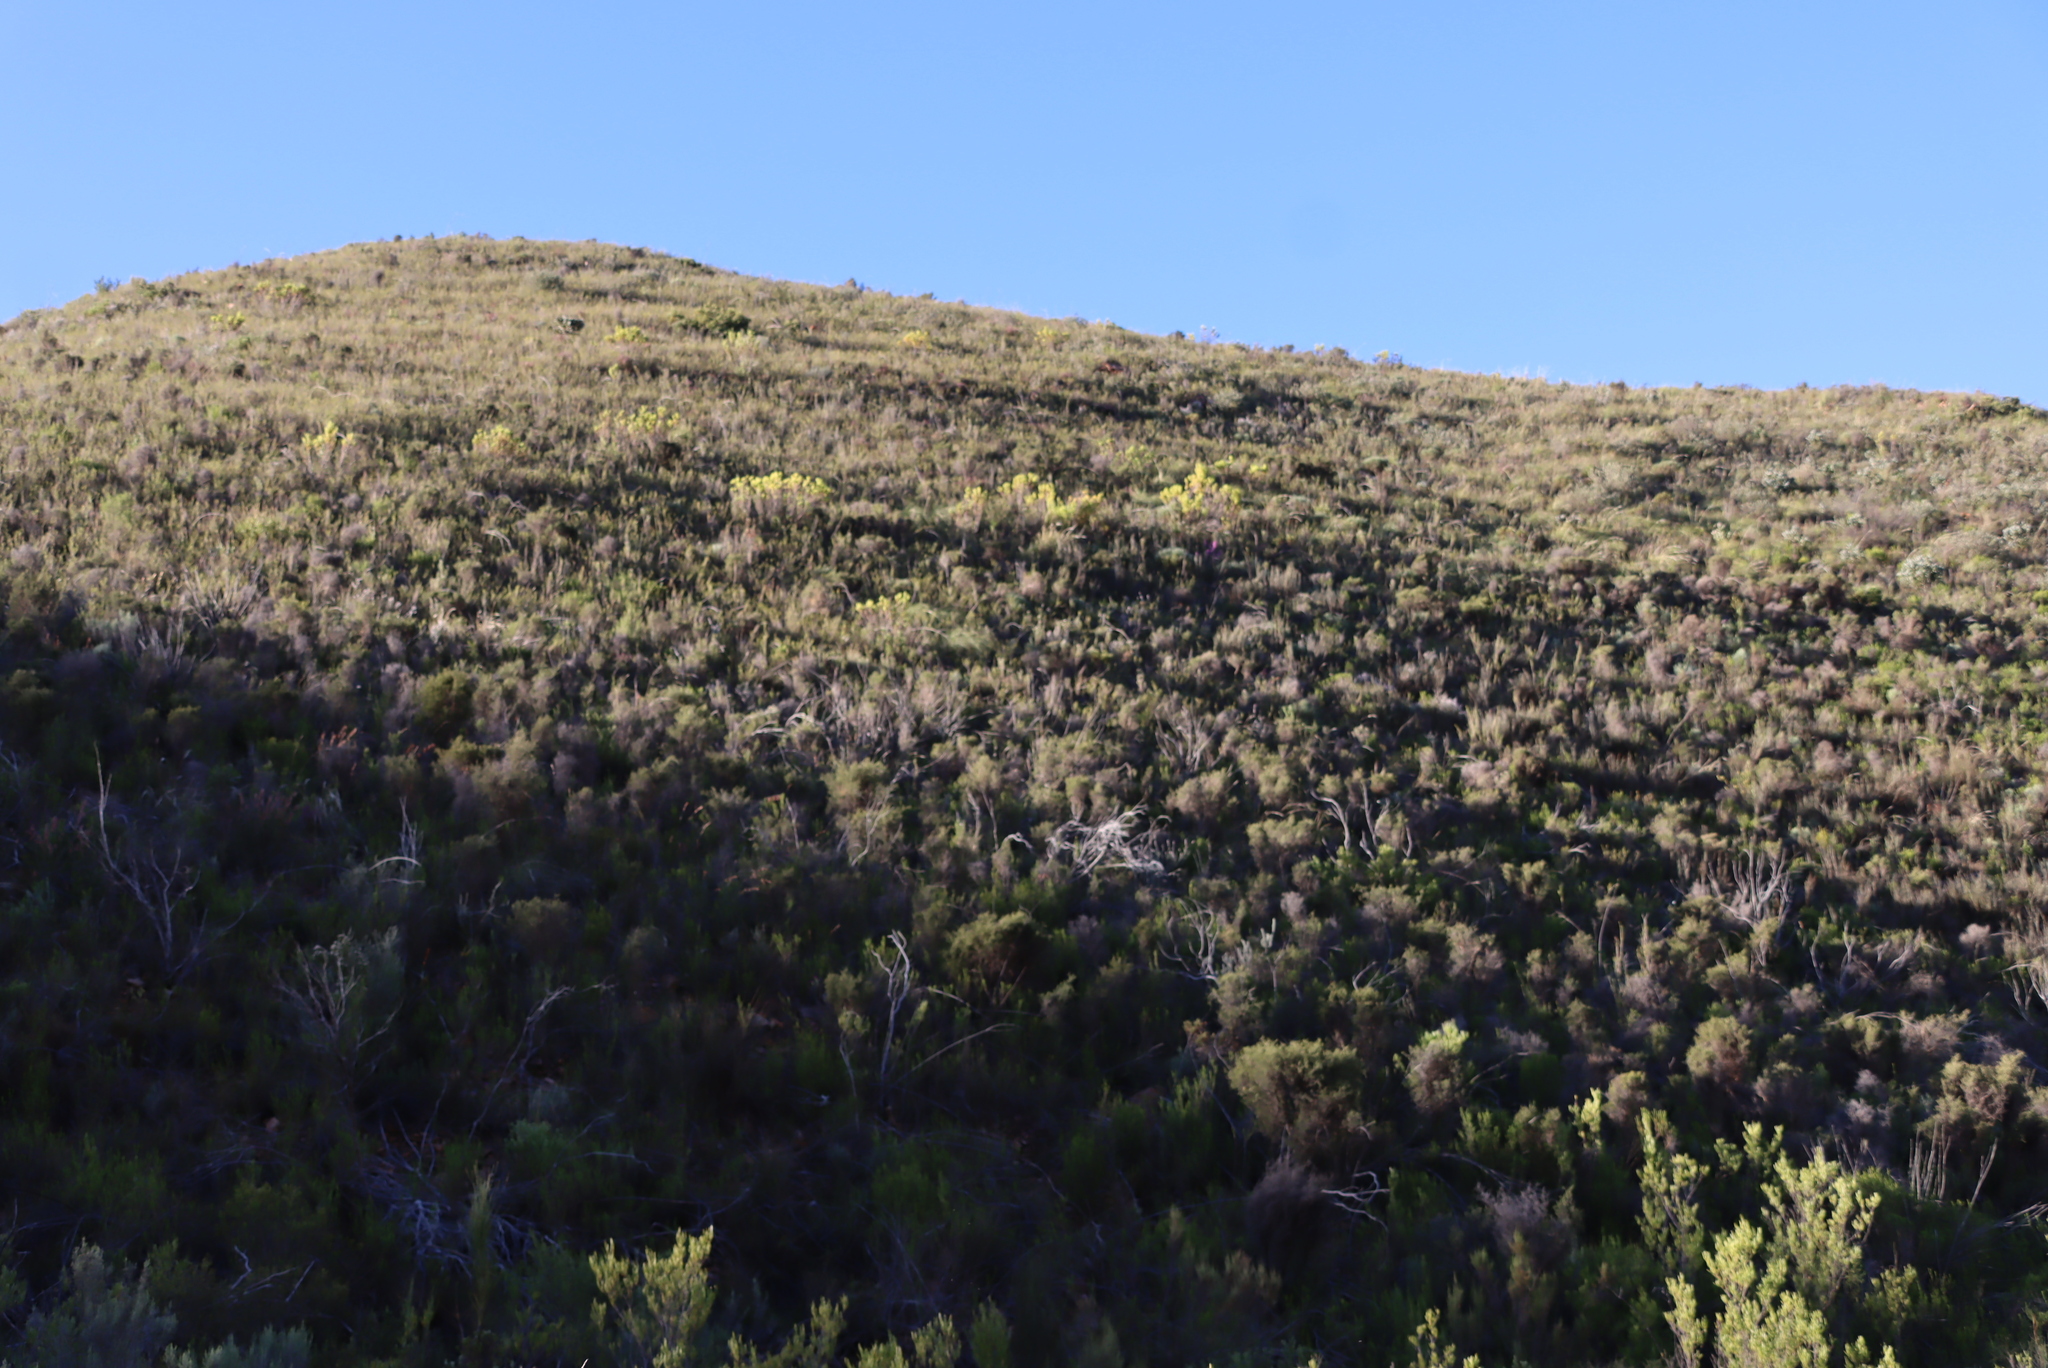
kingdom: Plantae
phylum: Tracheophyta
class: Magnoliopsida
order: Proteales
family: Proteaceae
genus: Leucadendron
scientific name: Leucadendron salignum
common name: Common sunshine conebush
